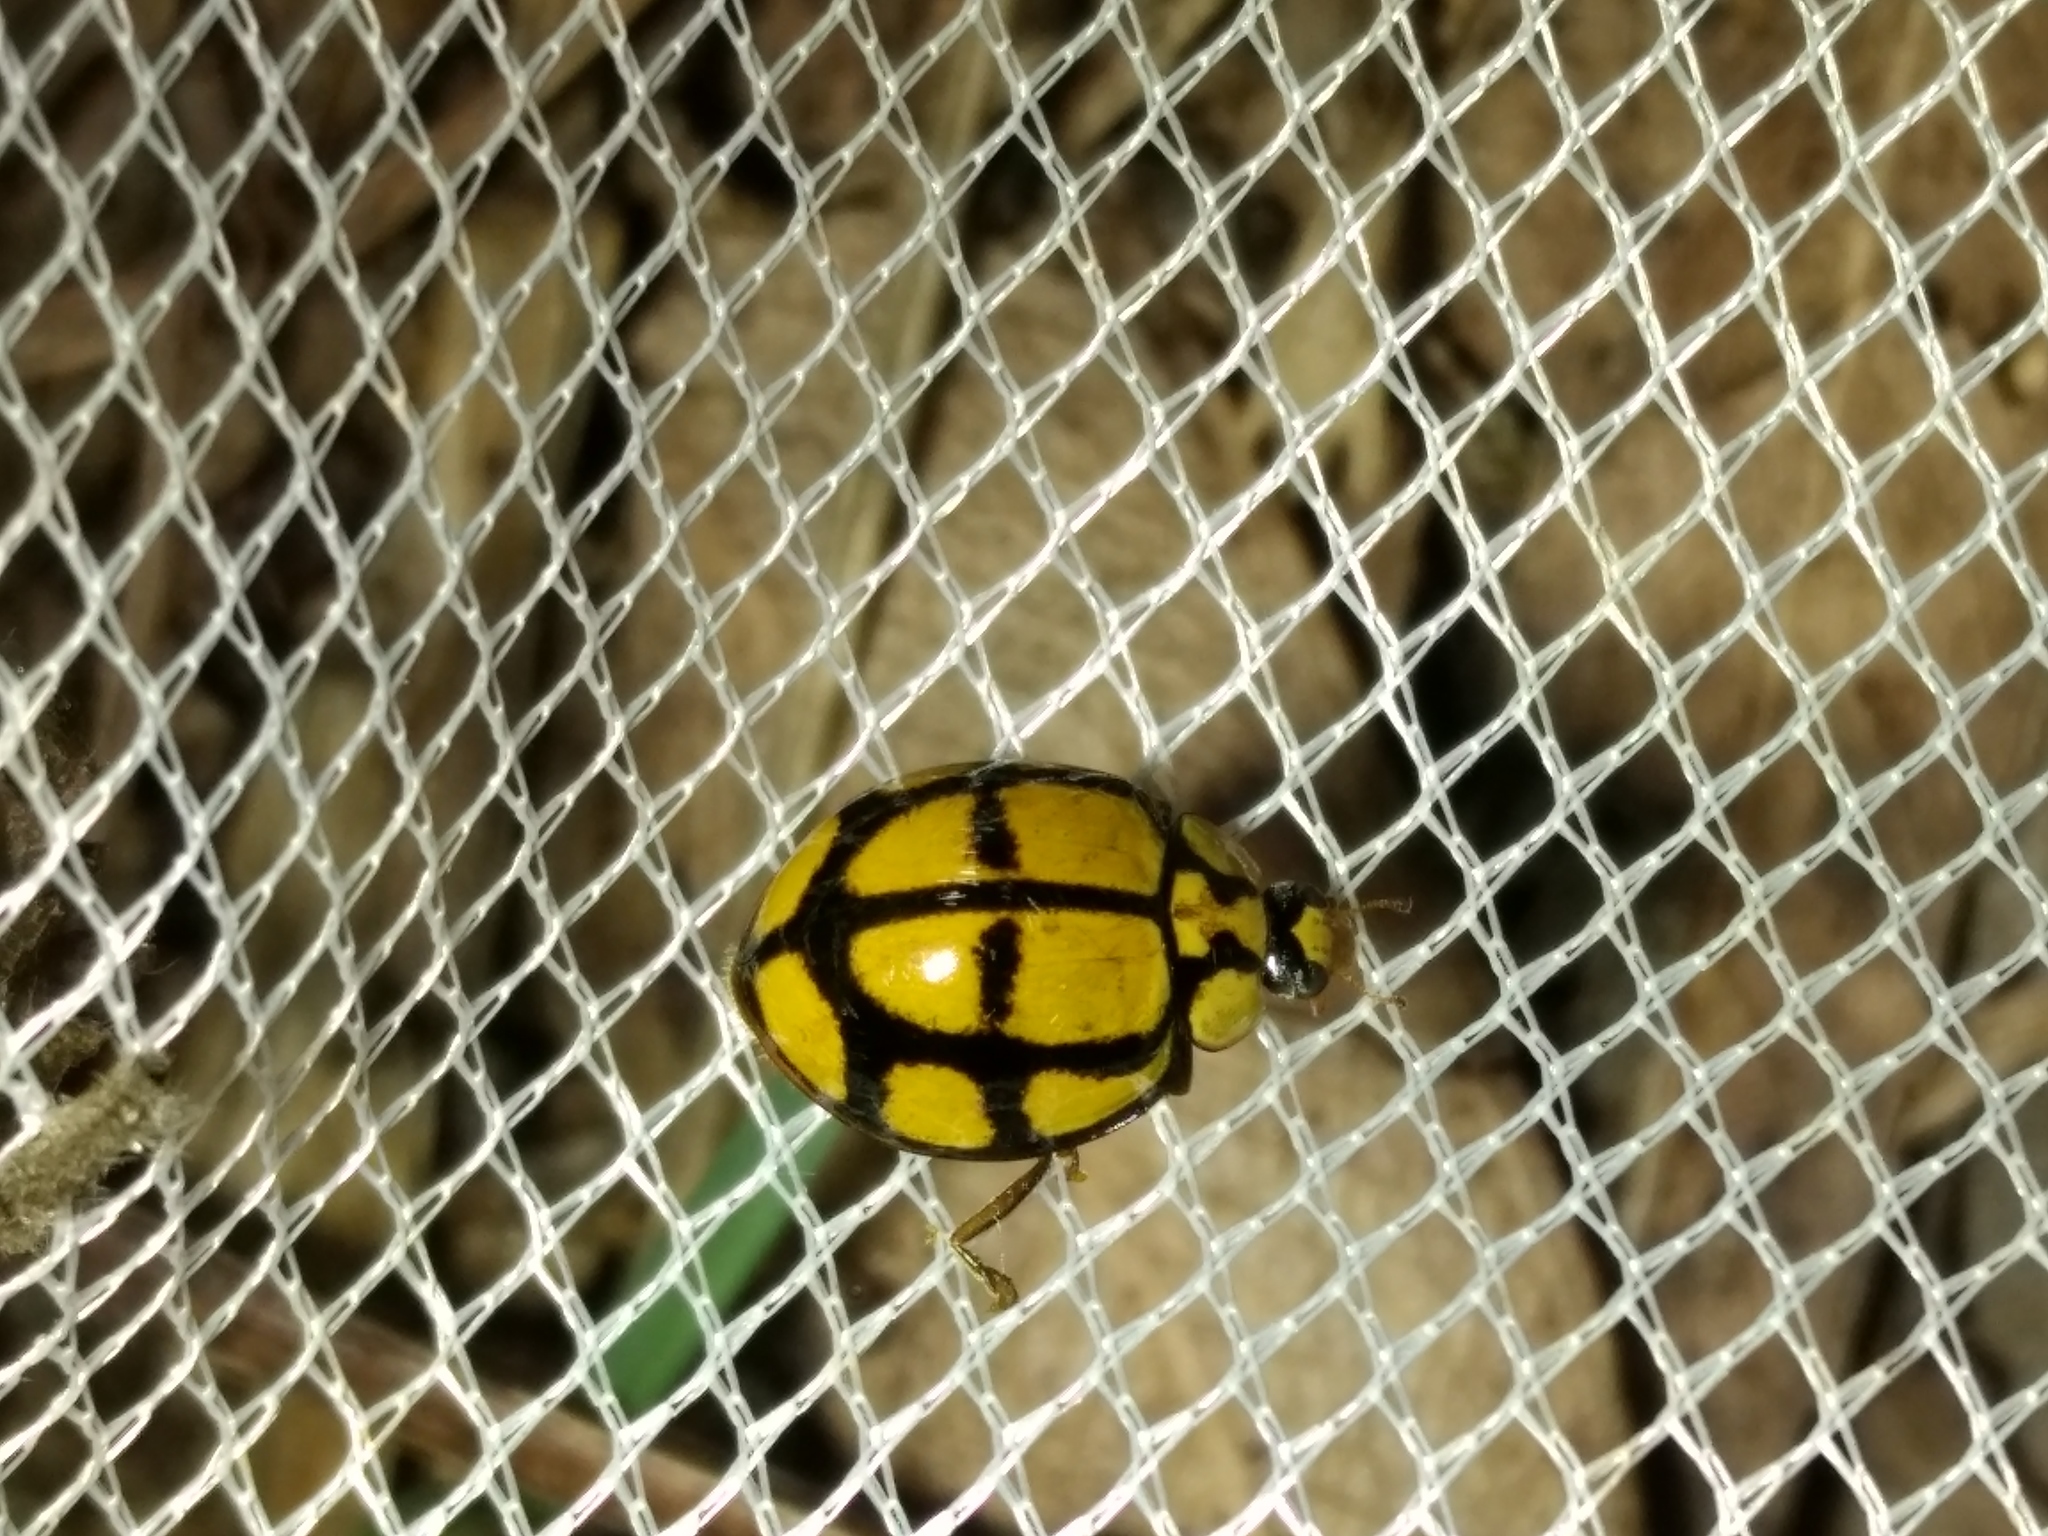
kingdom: Animalia
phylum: Arthropoda
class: Insecta
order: Coleoptera
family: Coccinellidae
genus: Harmonia
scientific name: Harmonia
